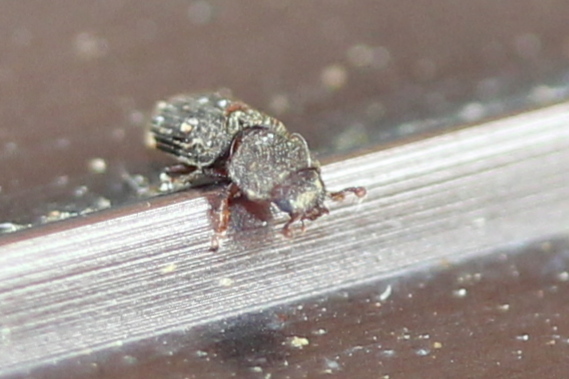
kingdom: Animalia
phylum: Arthropoda
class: Insecta
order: Coleoptera
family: Zopheridae
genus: Synchita
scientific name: Synchita fuliginosa
